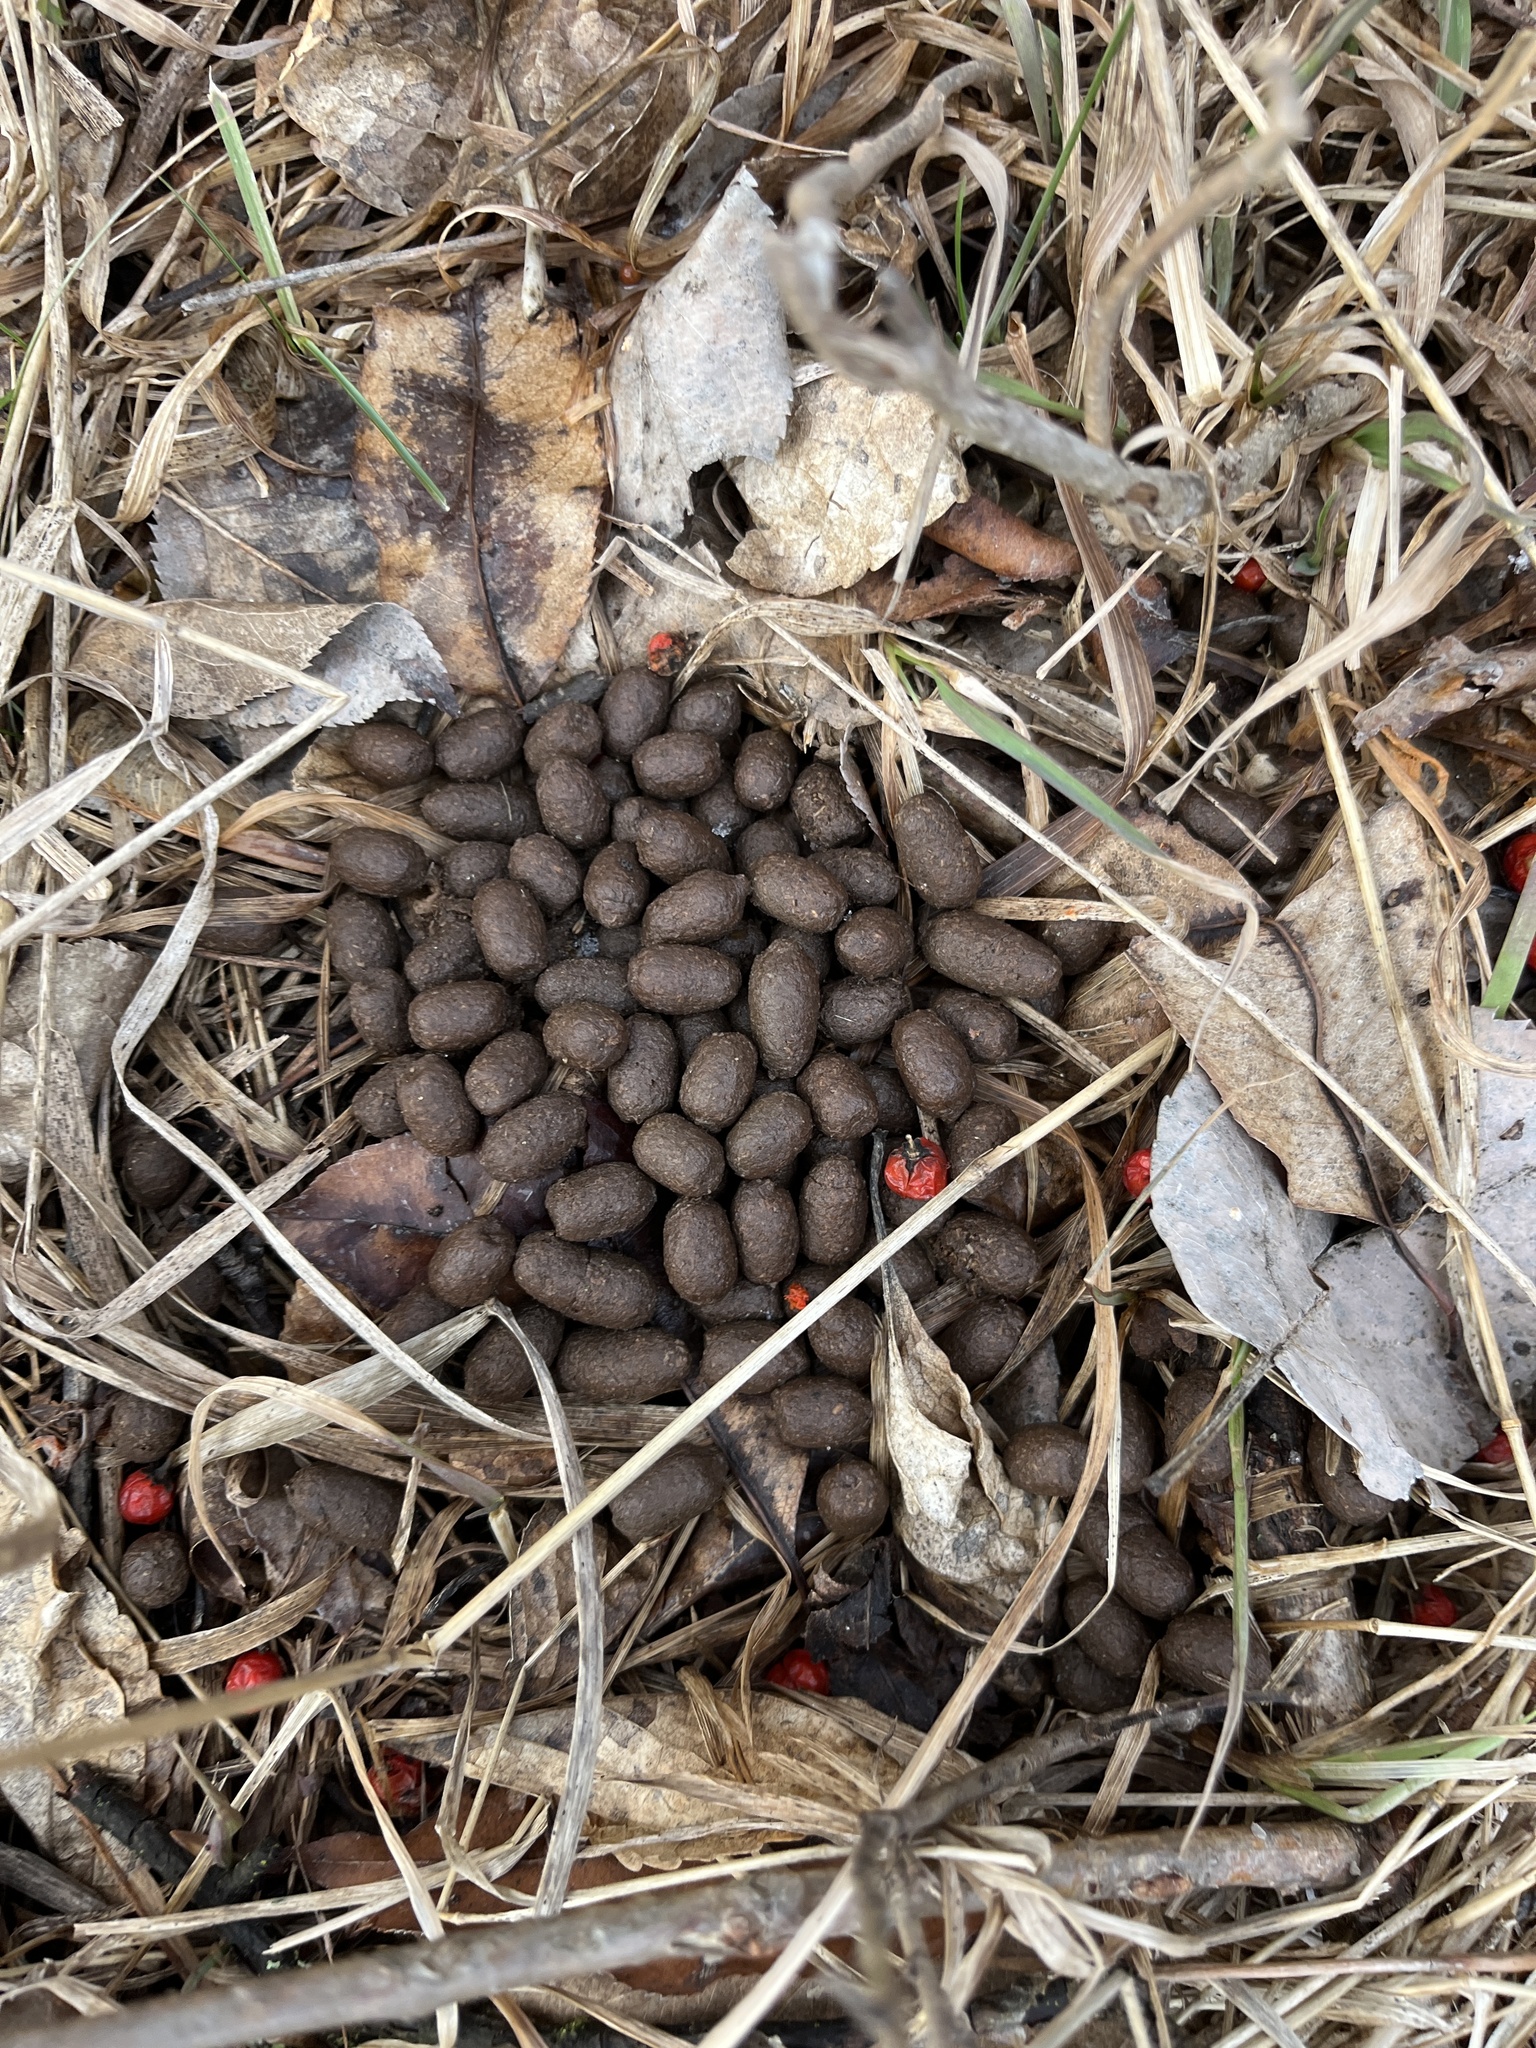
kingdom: Animalia
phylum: Chordata
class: Mammalia
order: Artiodactyla
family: Cervidae
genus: Odocoileus
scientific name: Odocoileus virginianus
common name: White-tailed deer
